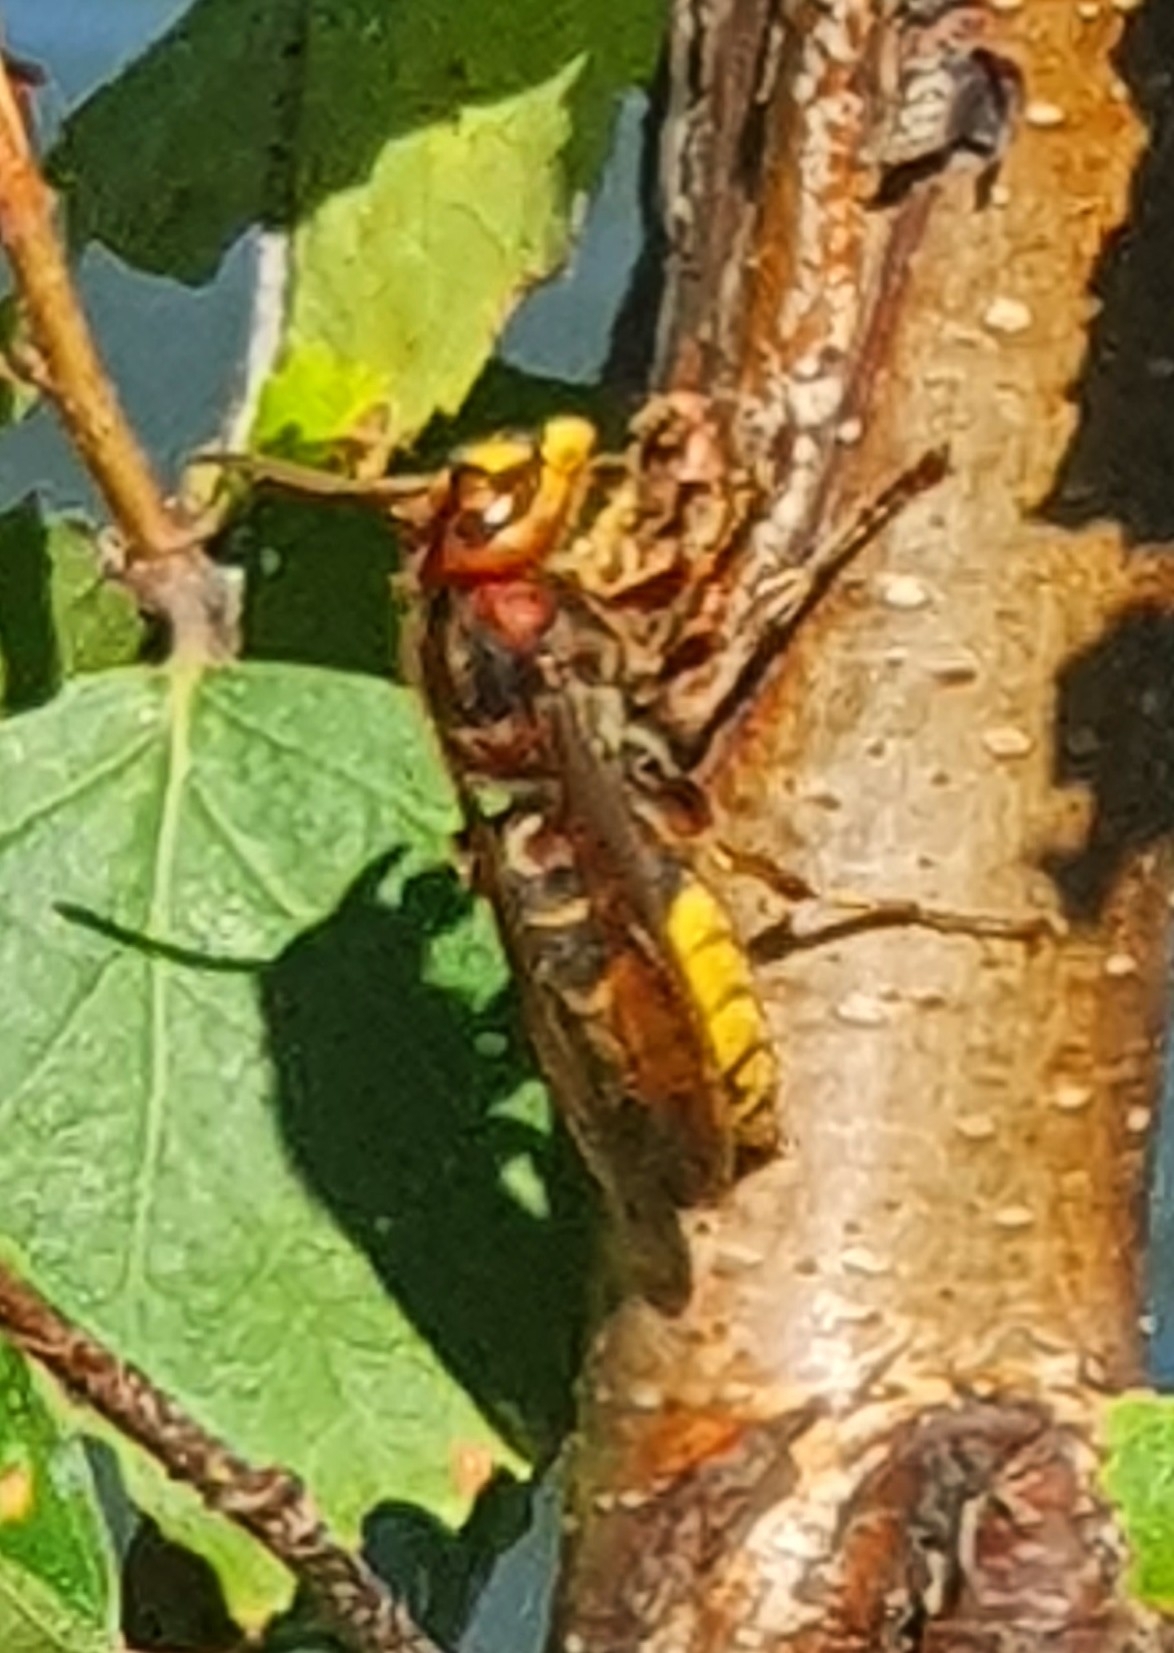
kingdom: Animalia
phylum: Arthropoda
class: Insecta
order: Hymenoptera
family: Vespidae
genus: Vespa
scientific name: Vespa crabro
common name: Hornet
